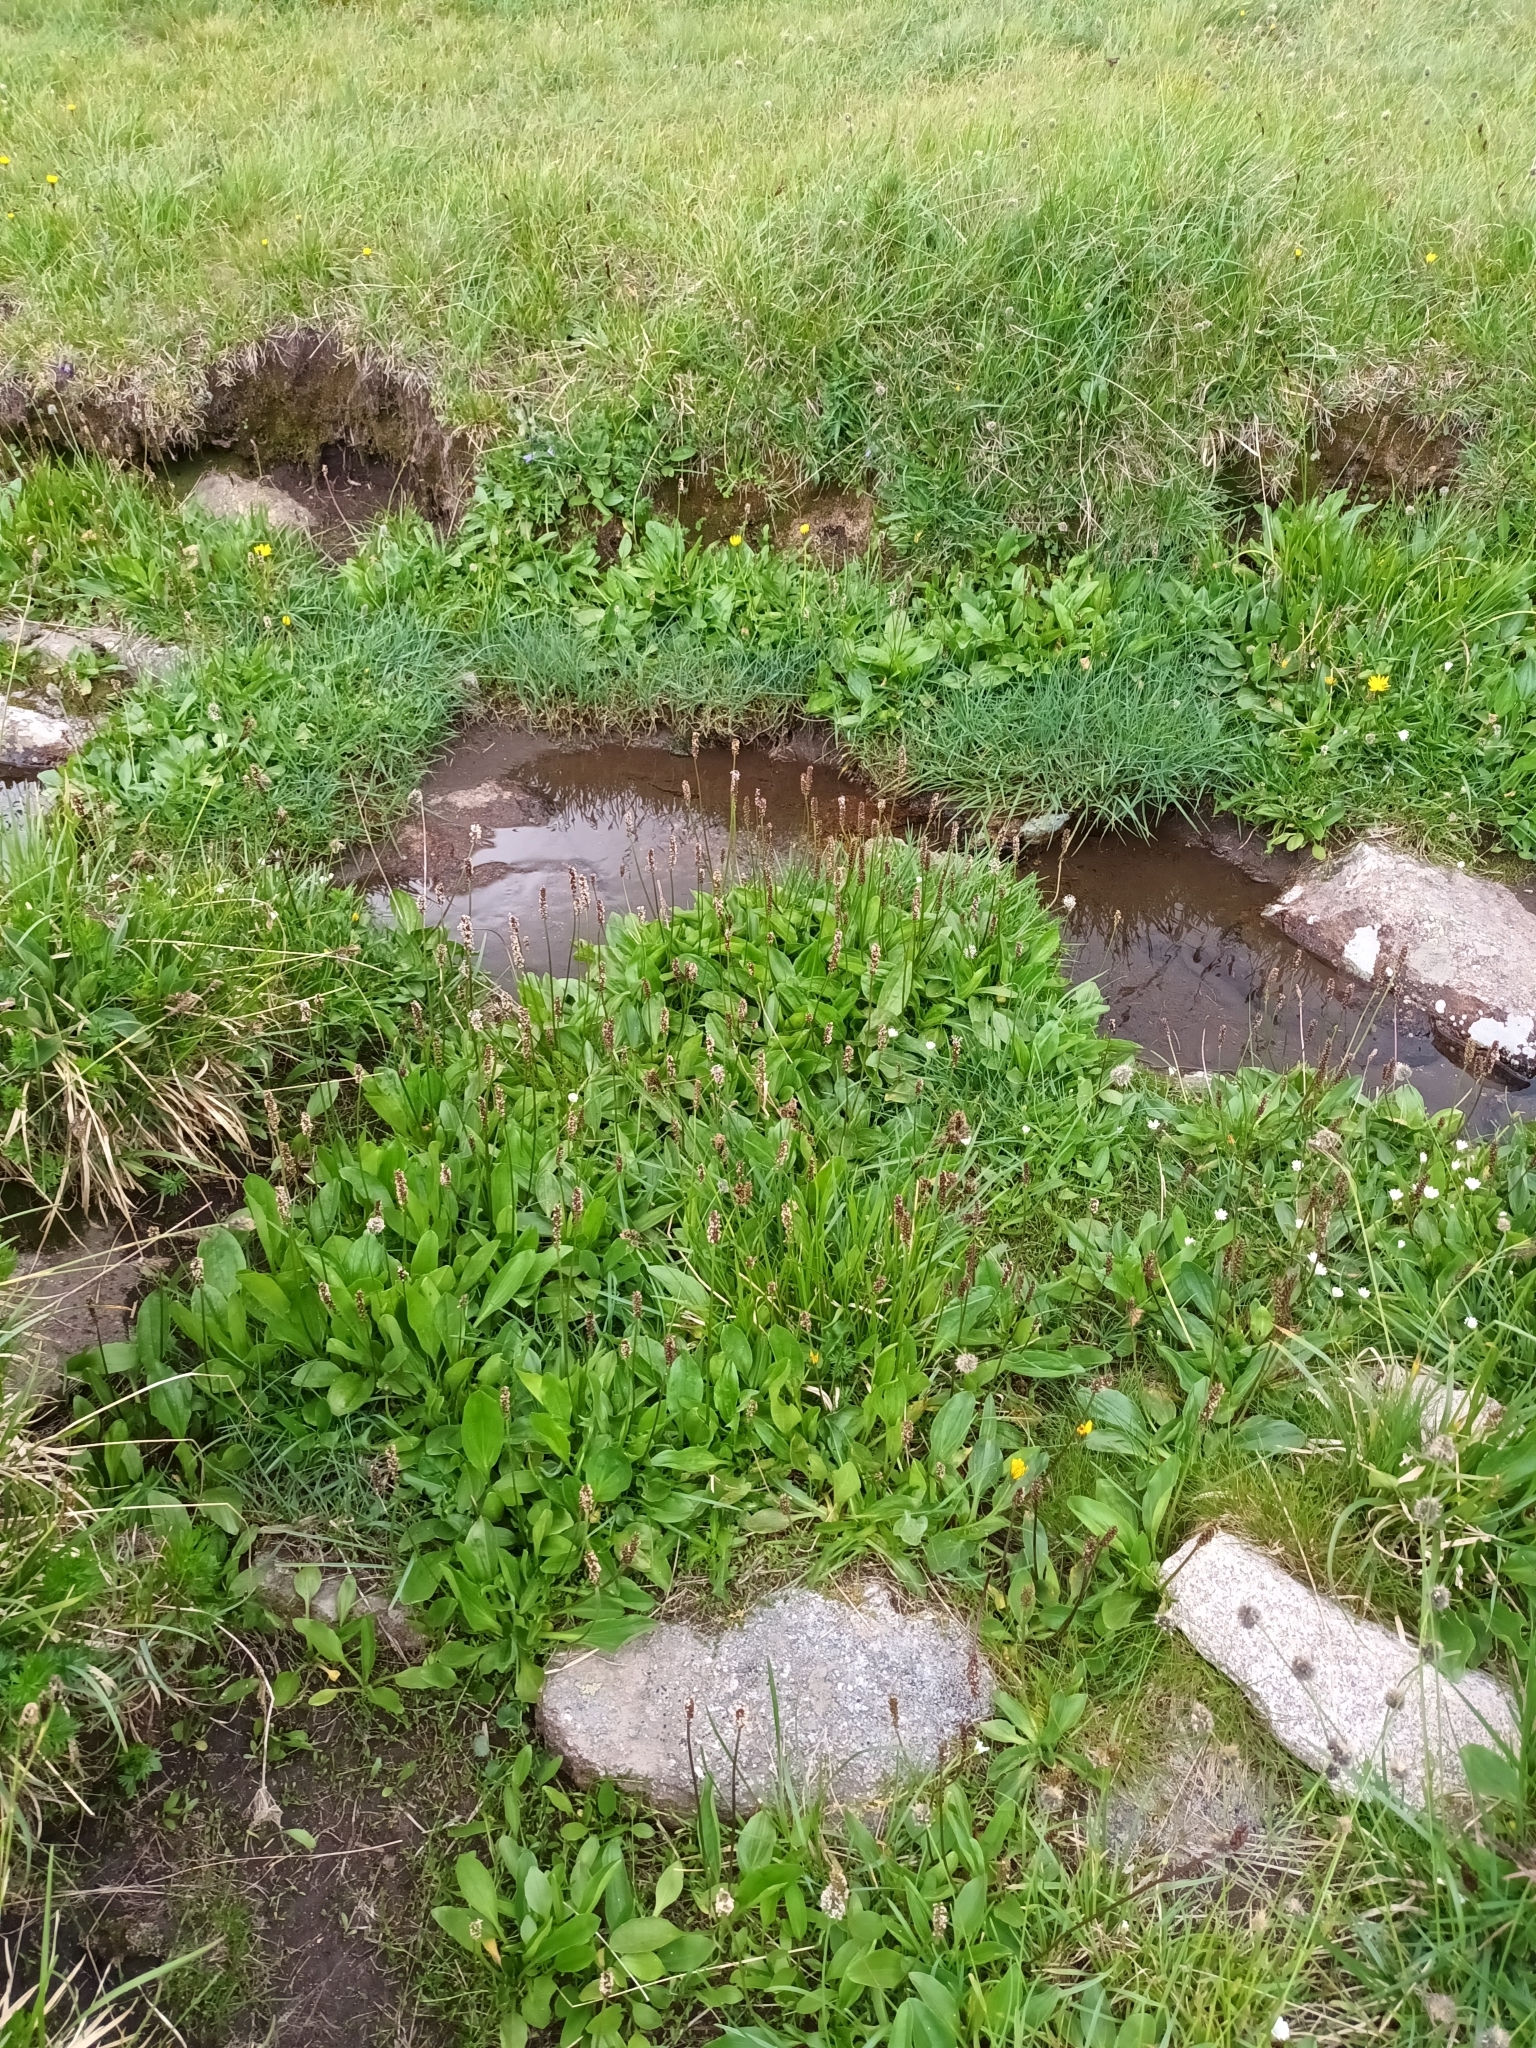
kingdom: Plantae
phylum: Tracheophyta
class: Magnoliopsida
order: Lamiales
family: Plantaginaceae
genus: Plantago
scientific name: Plantago gentianoides
